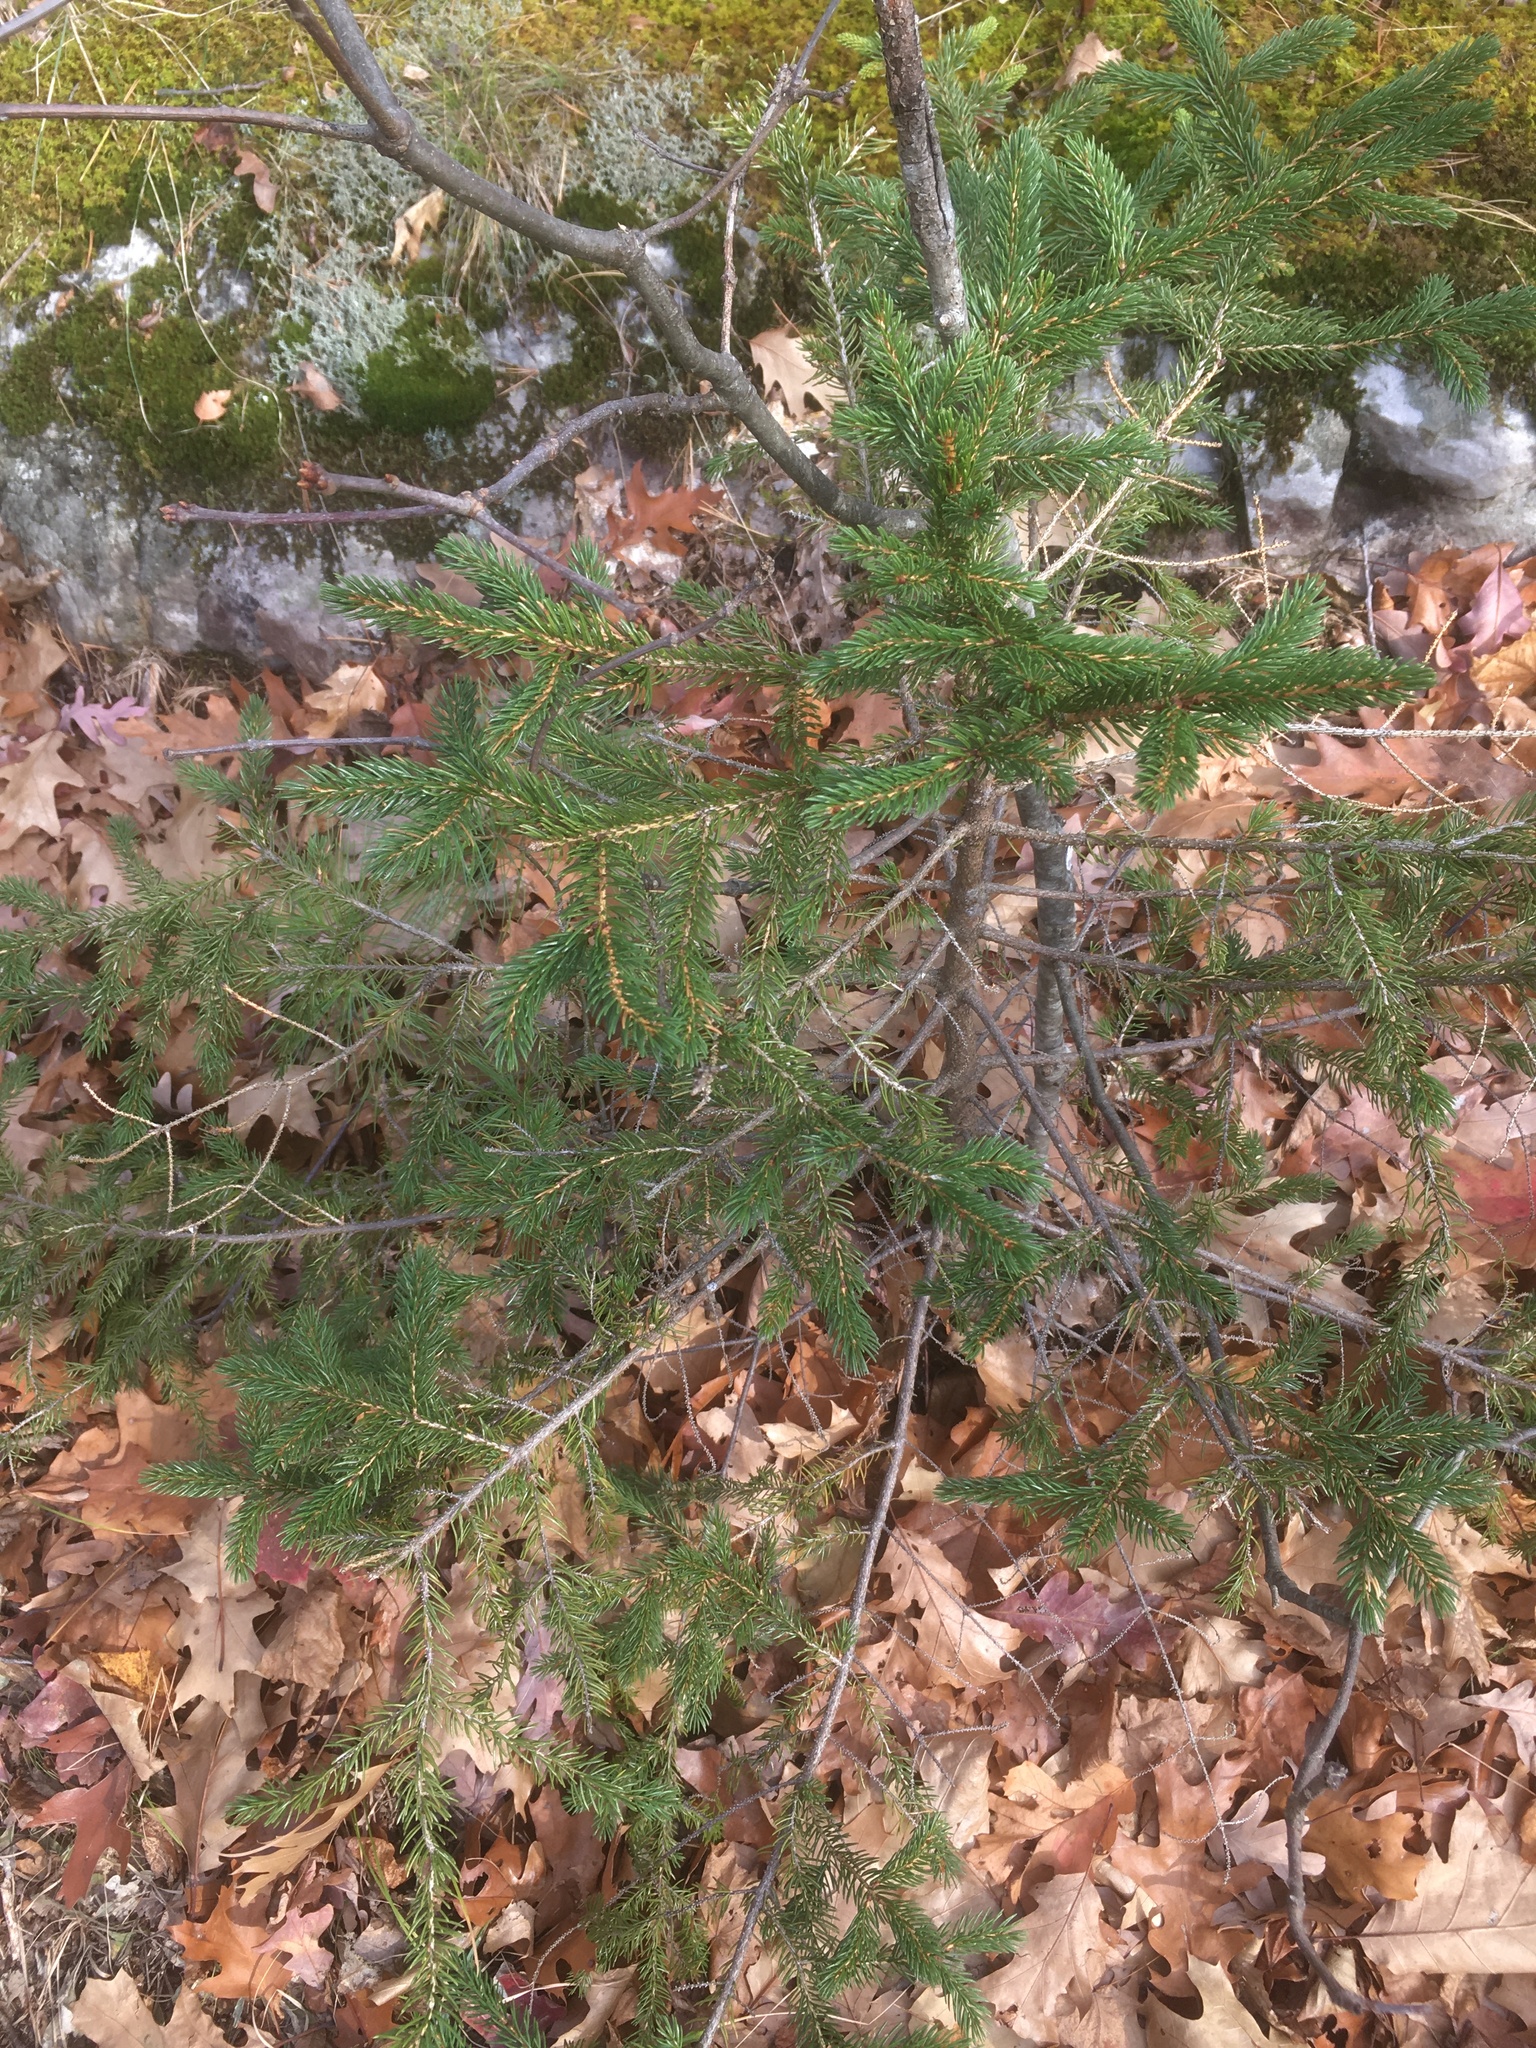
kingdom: Plantae
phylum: Tracheophyta
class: Pinopsida
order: Pinales
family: Pinaceae
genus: Picea
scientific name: Picea rubens
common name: Red spruce
